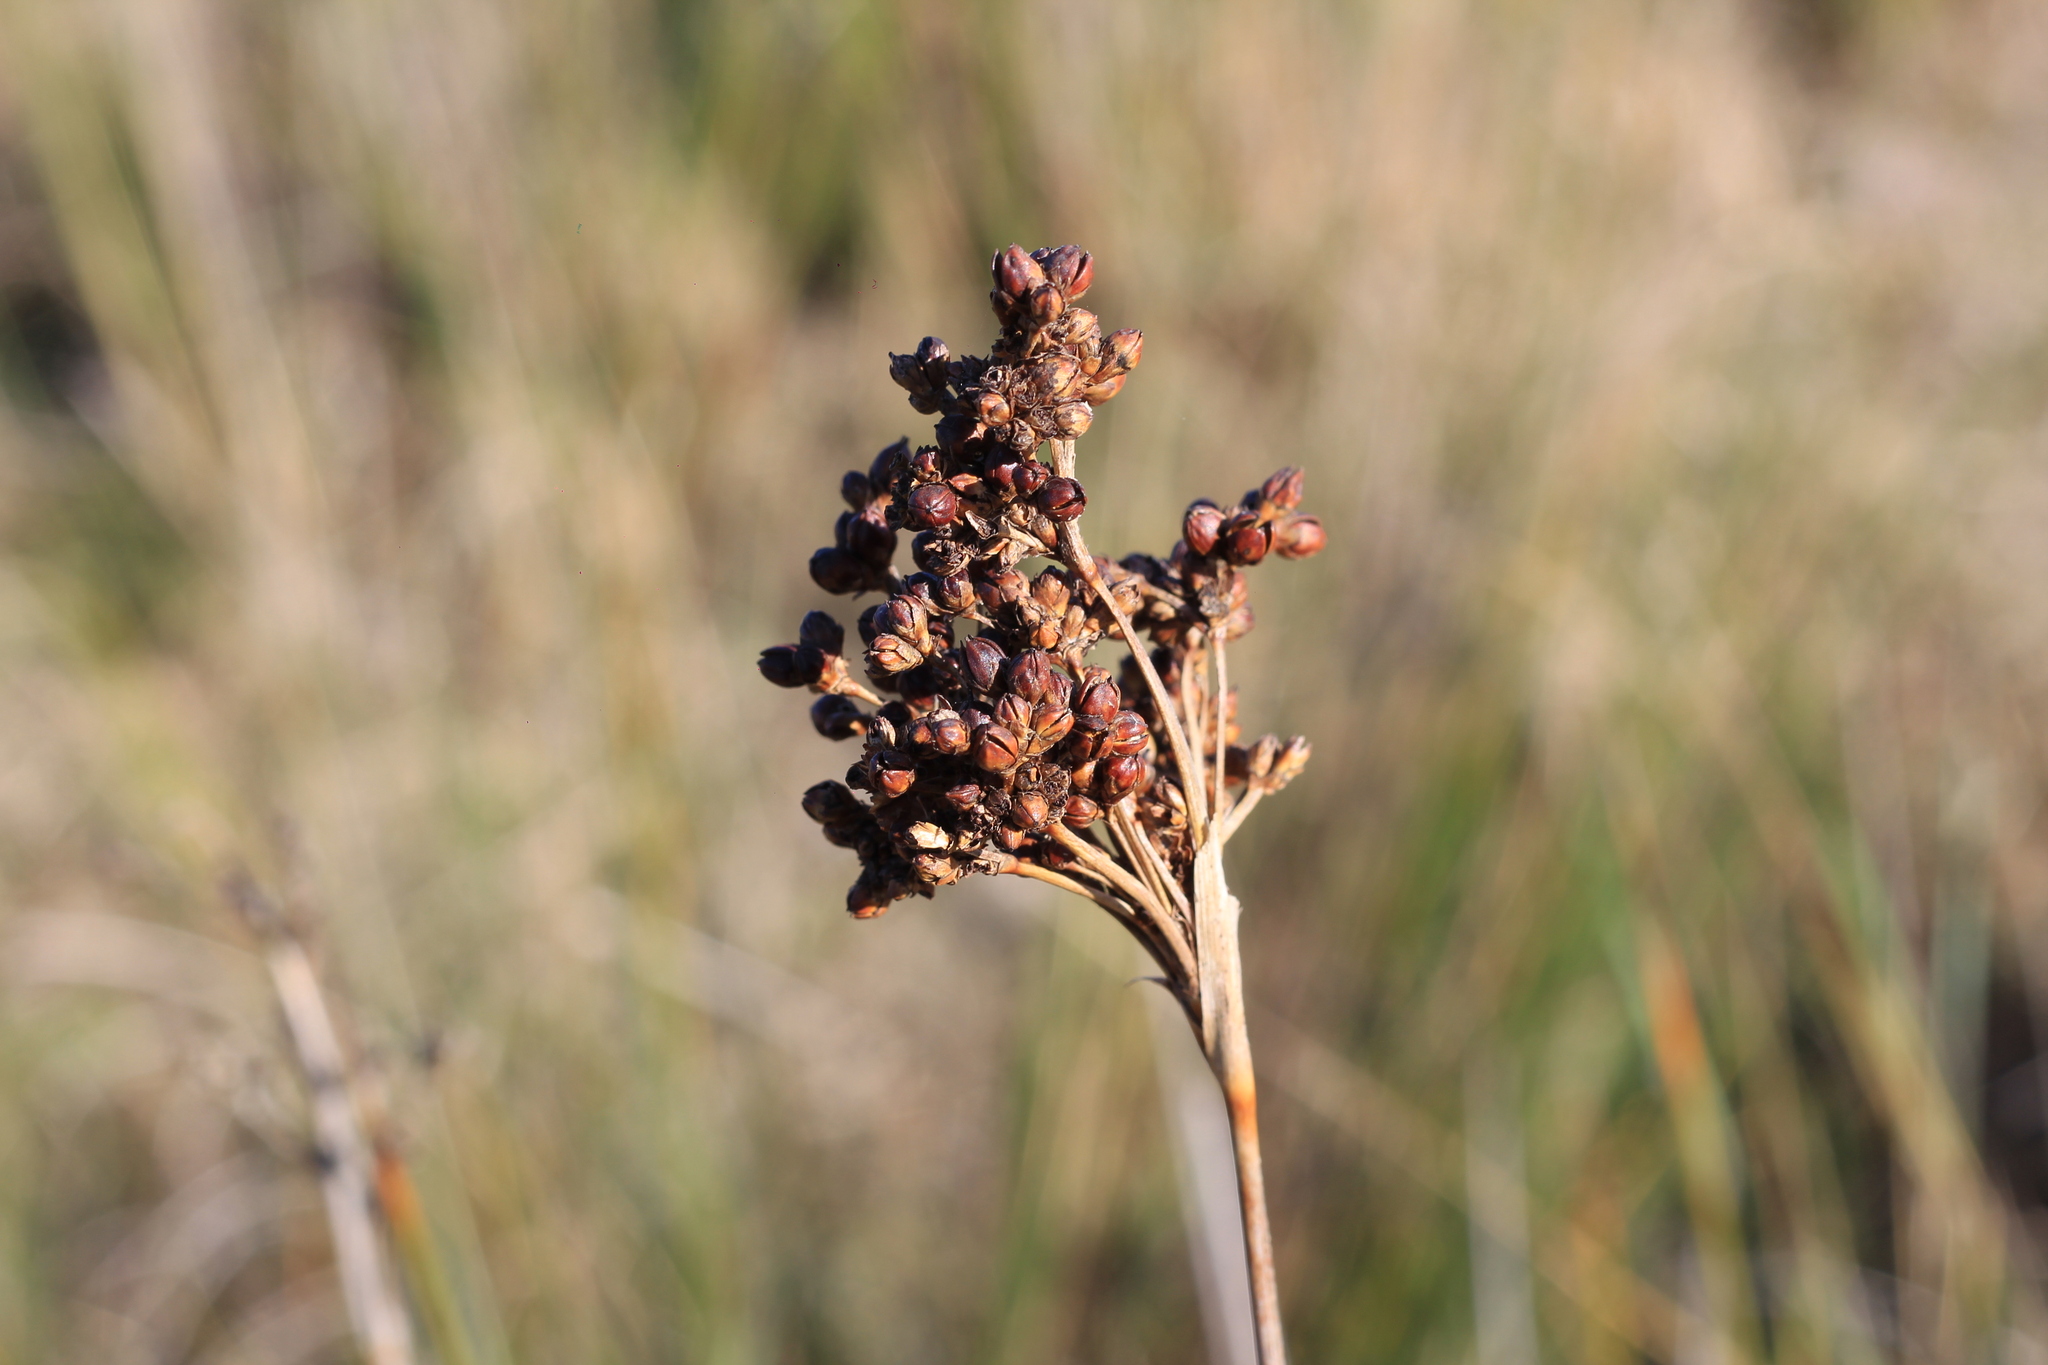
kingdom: Plantae
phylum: Tracheophyta
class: Liliopsida
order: Poales
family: Juncaceae
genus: Juncus
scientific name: Juncus acutus
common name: Sharp rush
